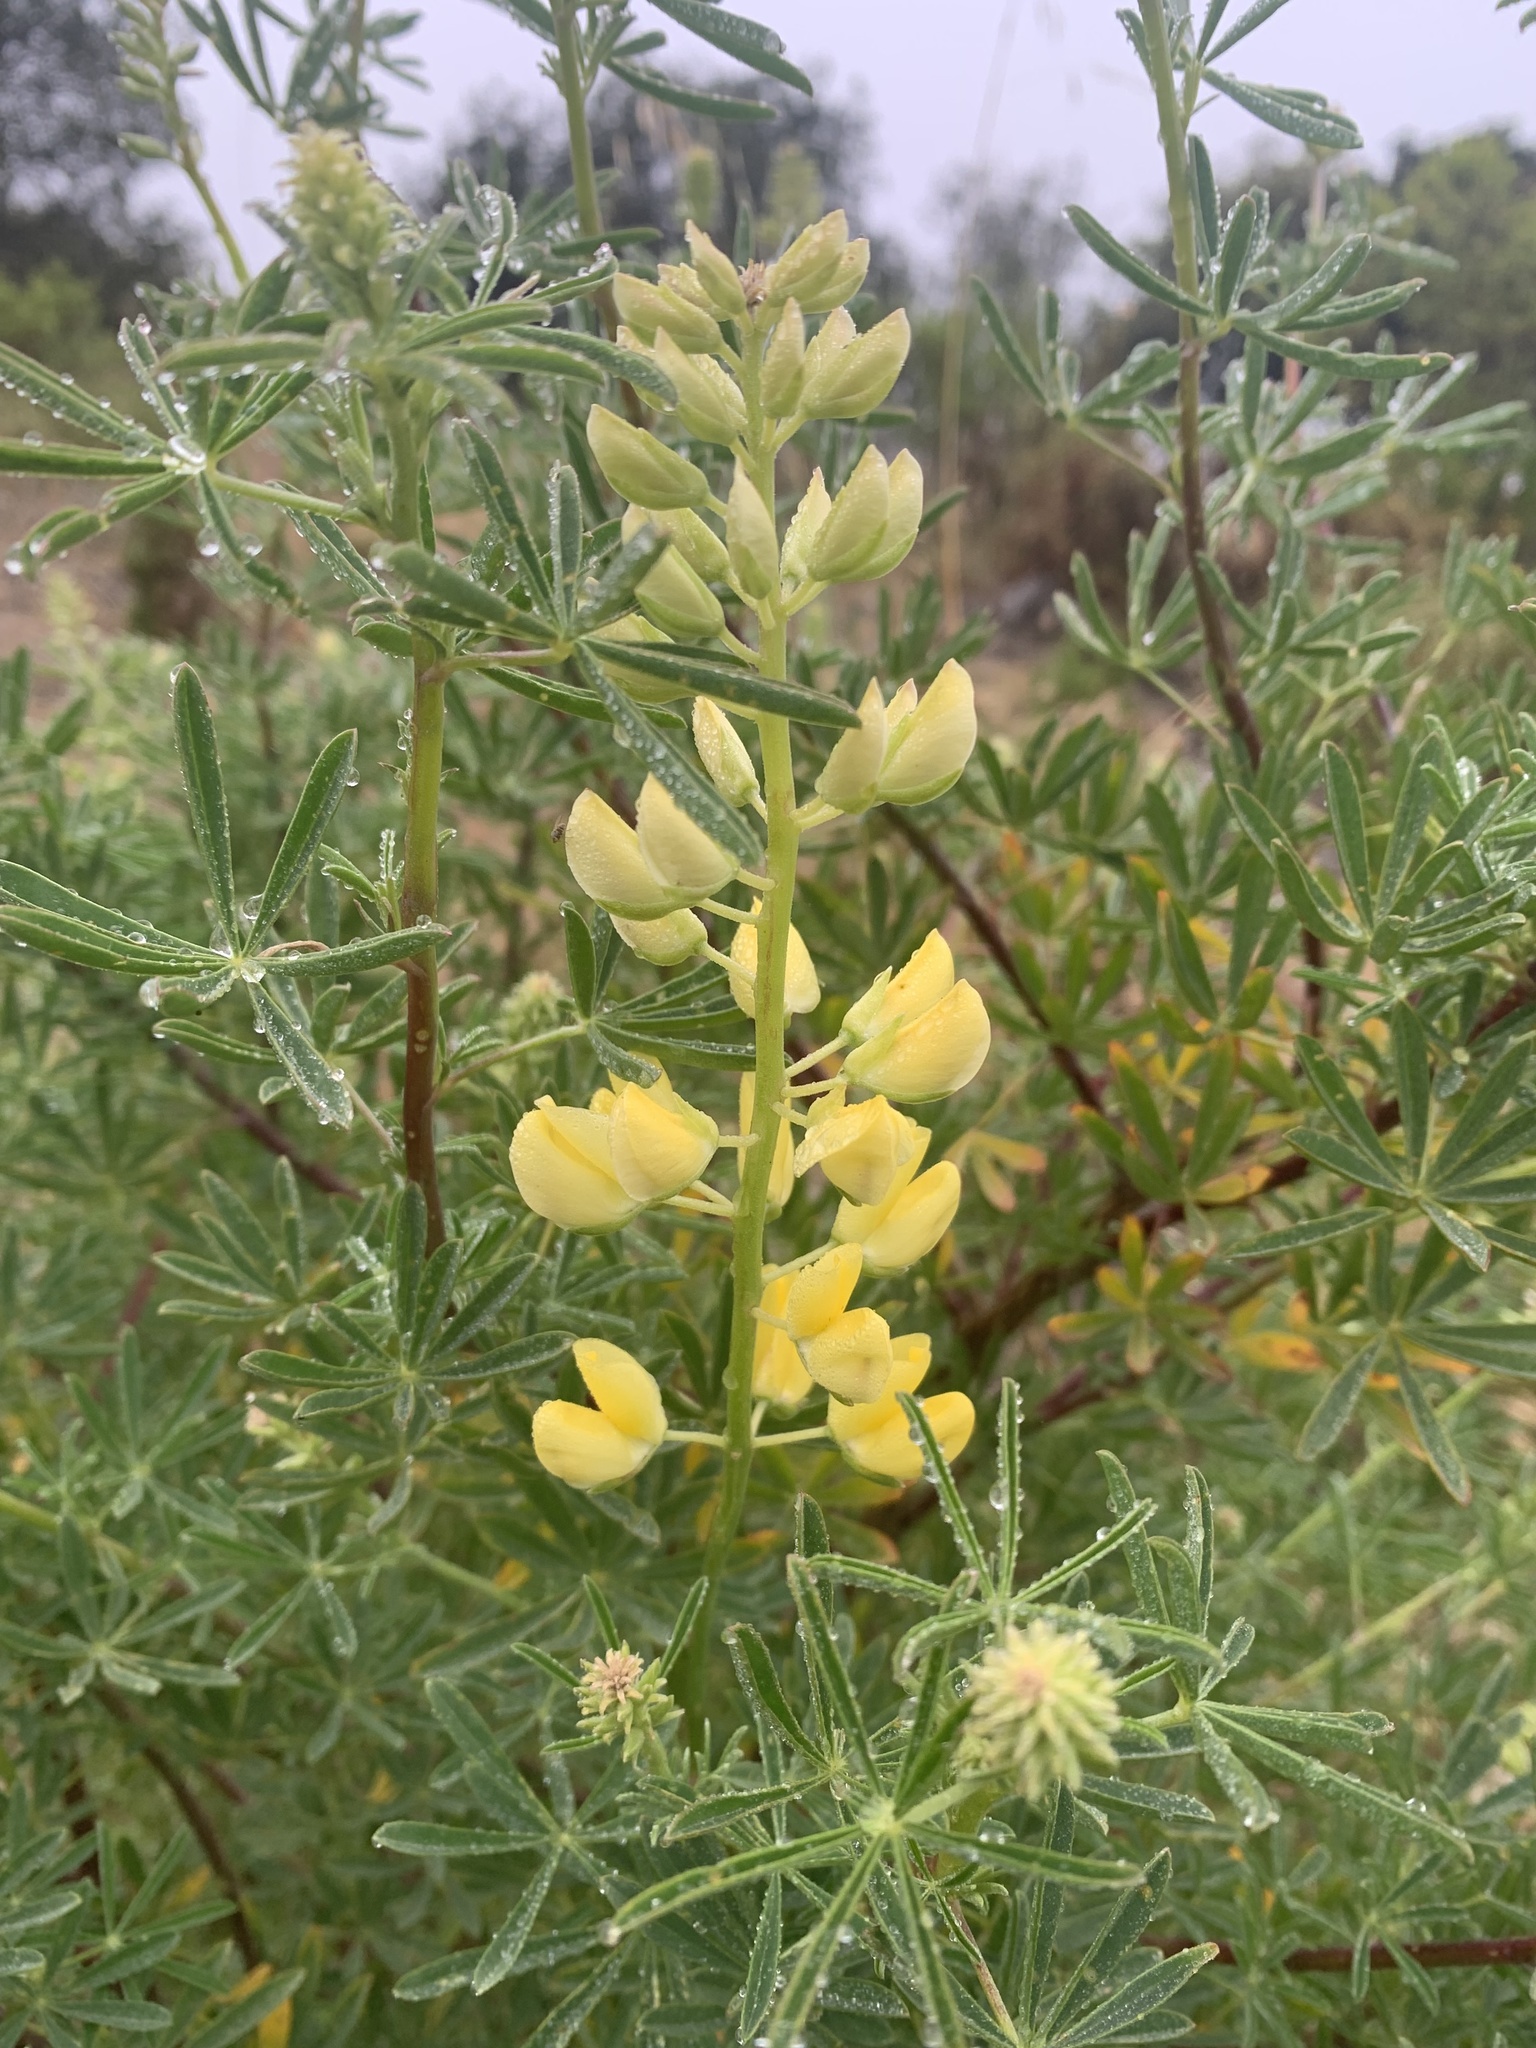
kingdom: Plantae
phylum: Tracheophyta
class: Magnoliopsida
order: Fabales
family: Fabaceae
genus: Lupinus
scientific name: Lupinus arboreus
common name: Yellow bush lupine
